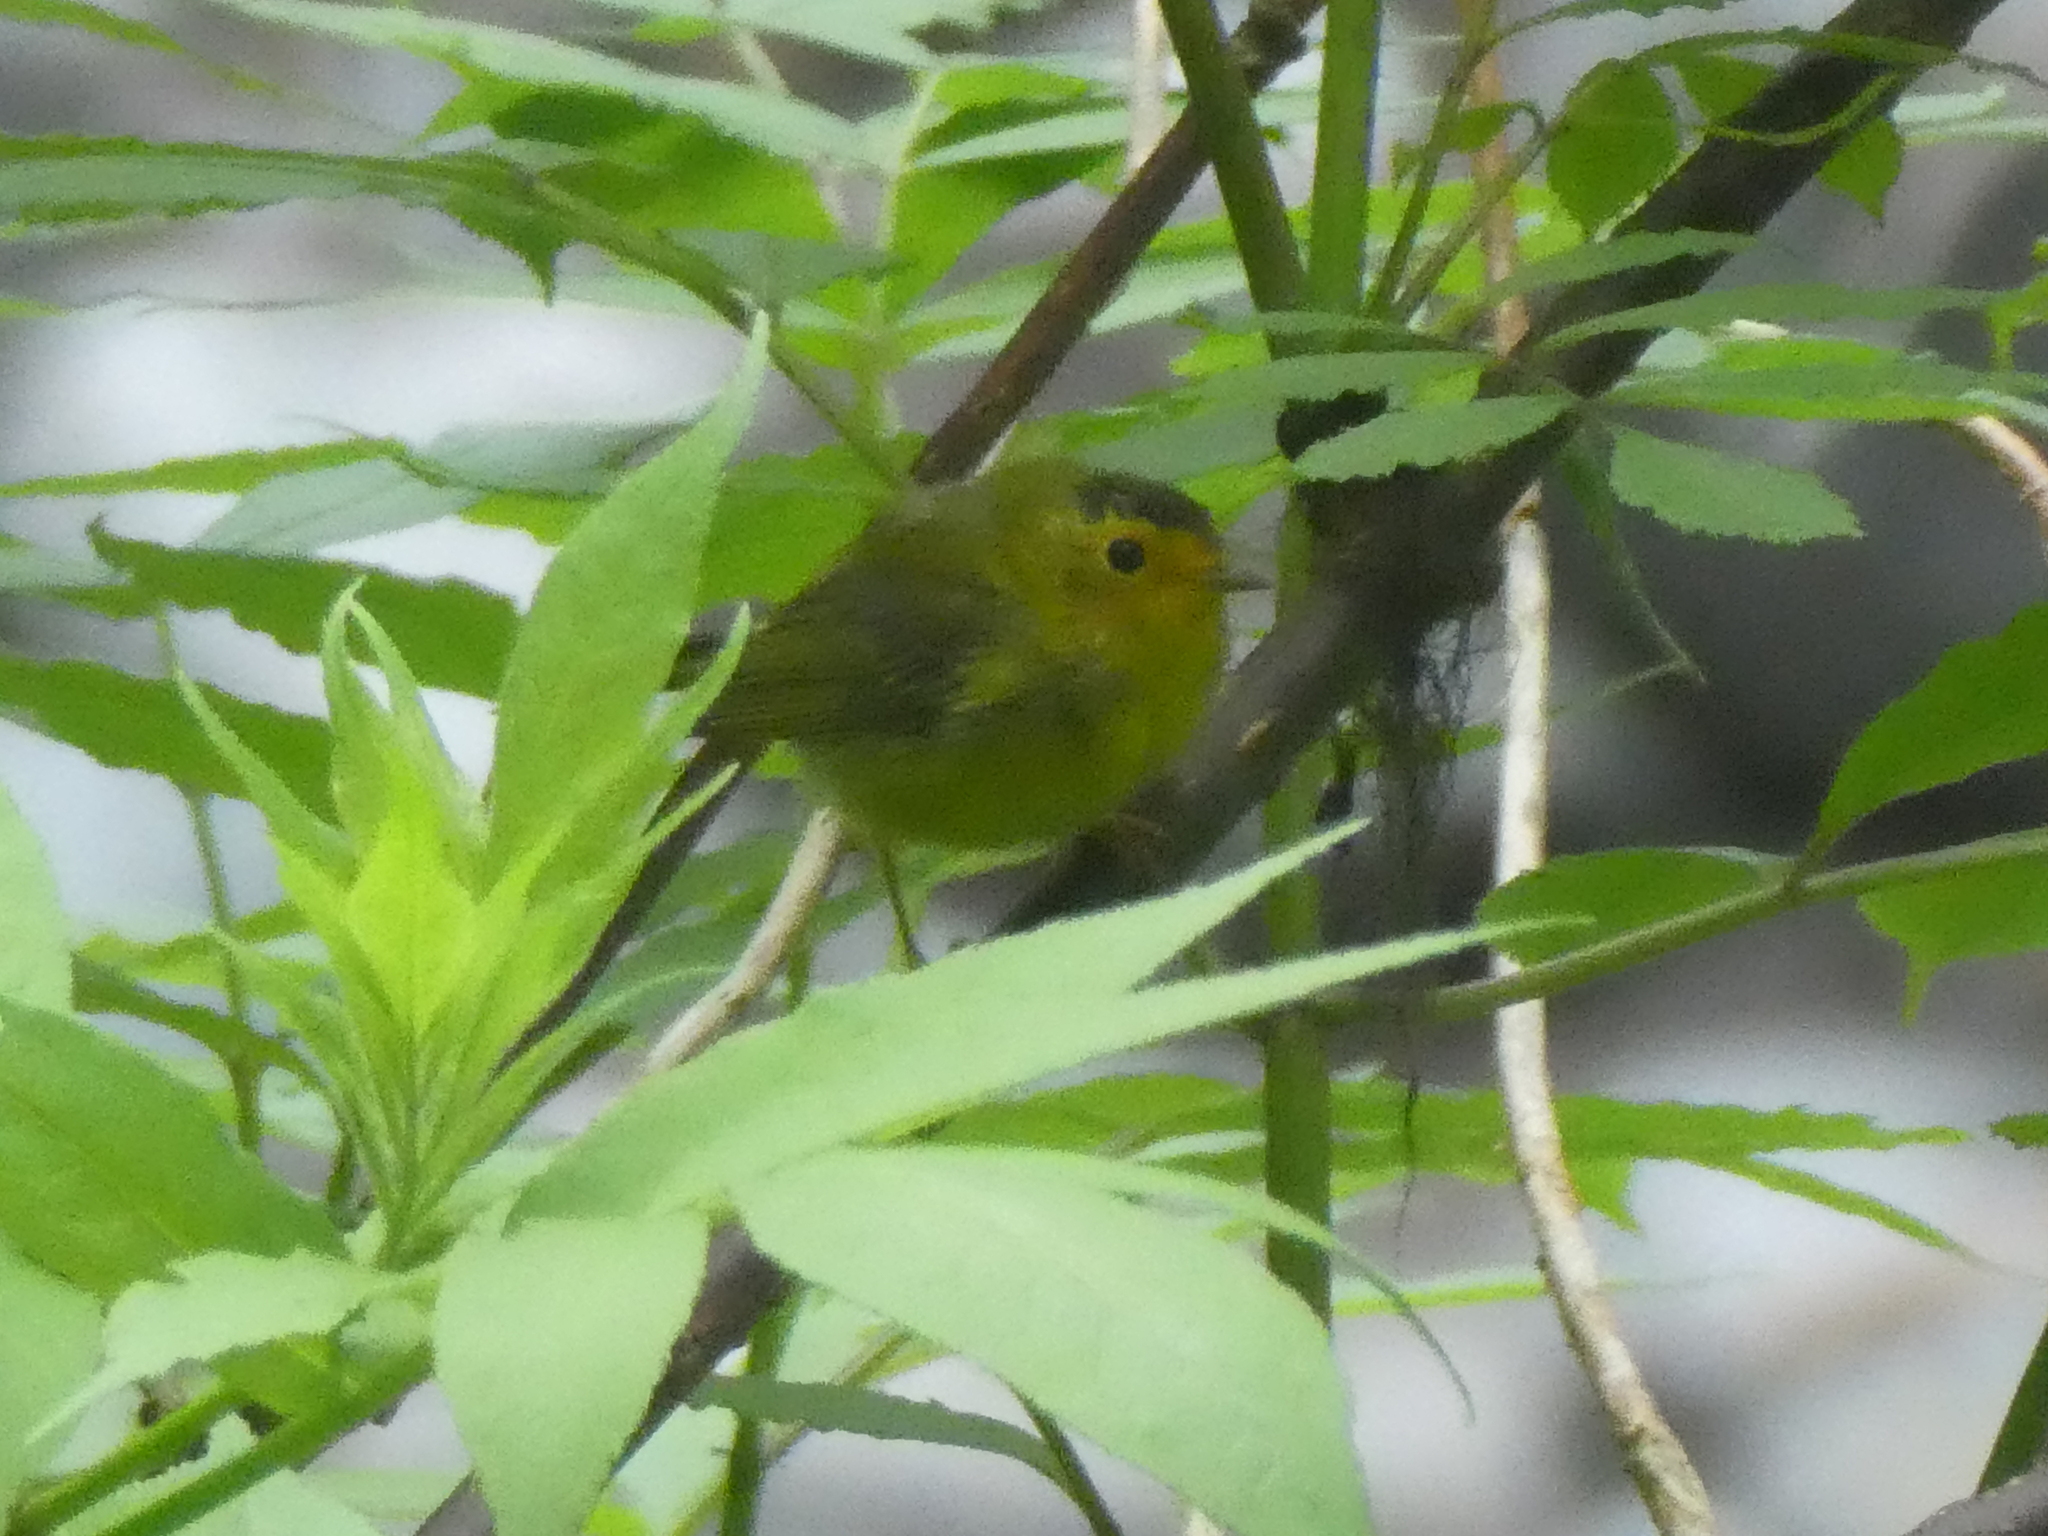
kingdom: Animalia
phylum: Chordata
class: Aves
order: Passeriformes
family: Parulidae
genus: Cardellina
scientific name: Cardellina pusilla
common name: Wilson's warbler
